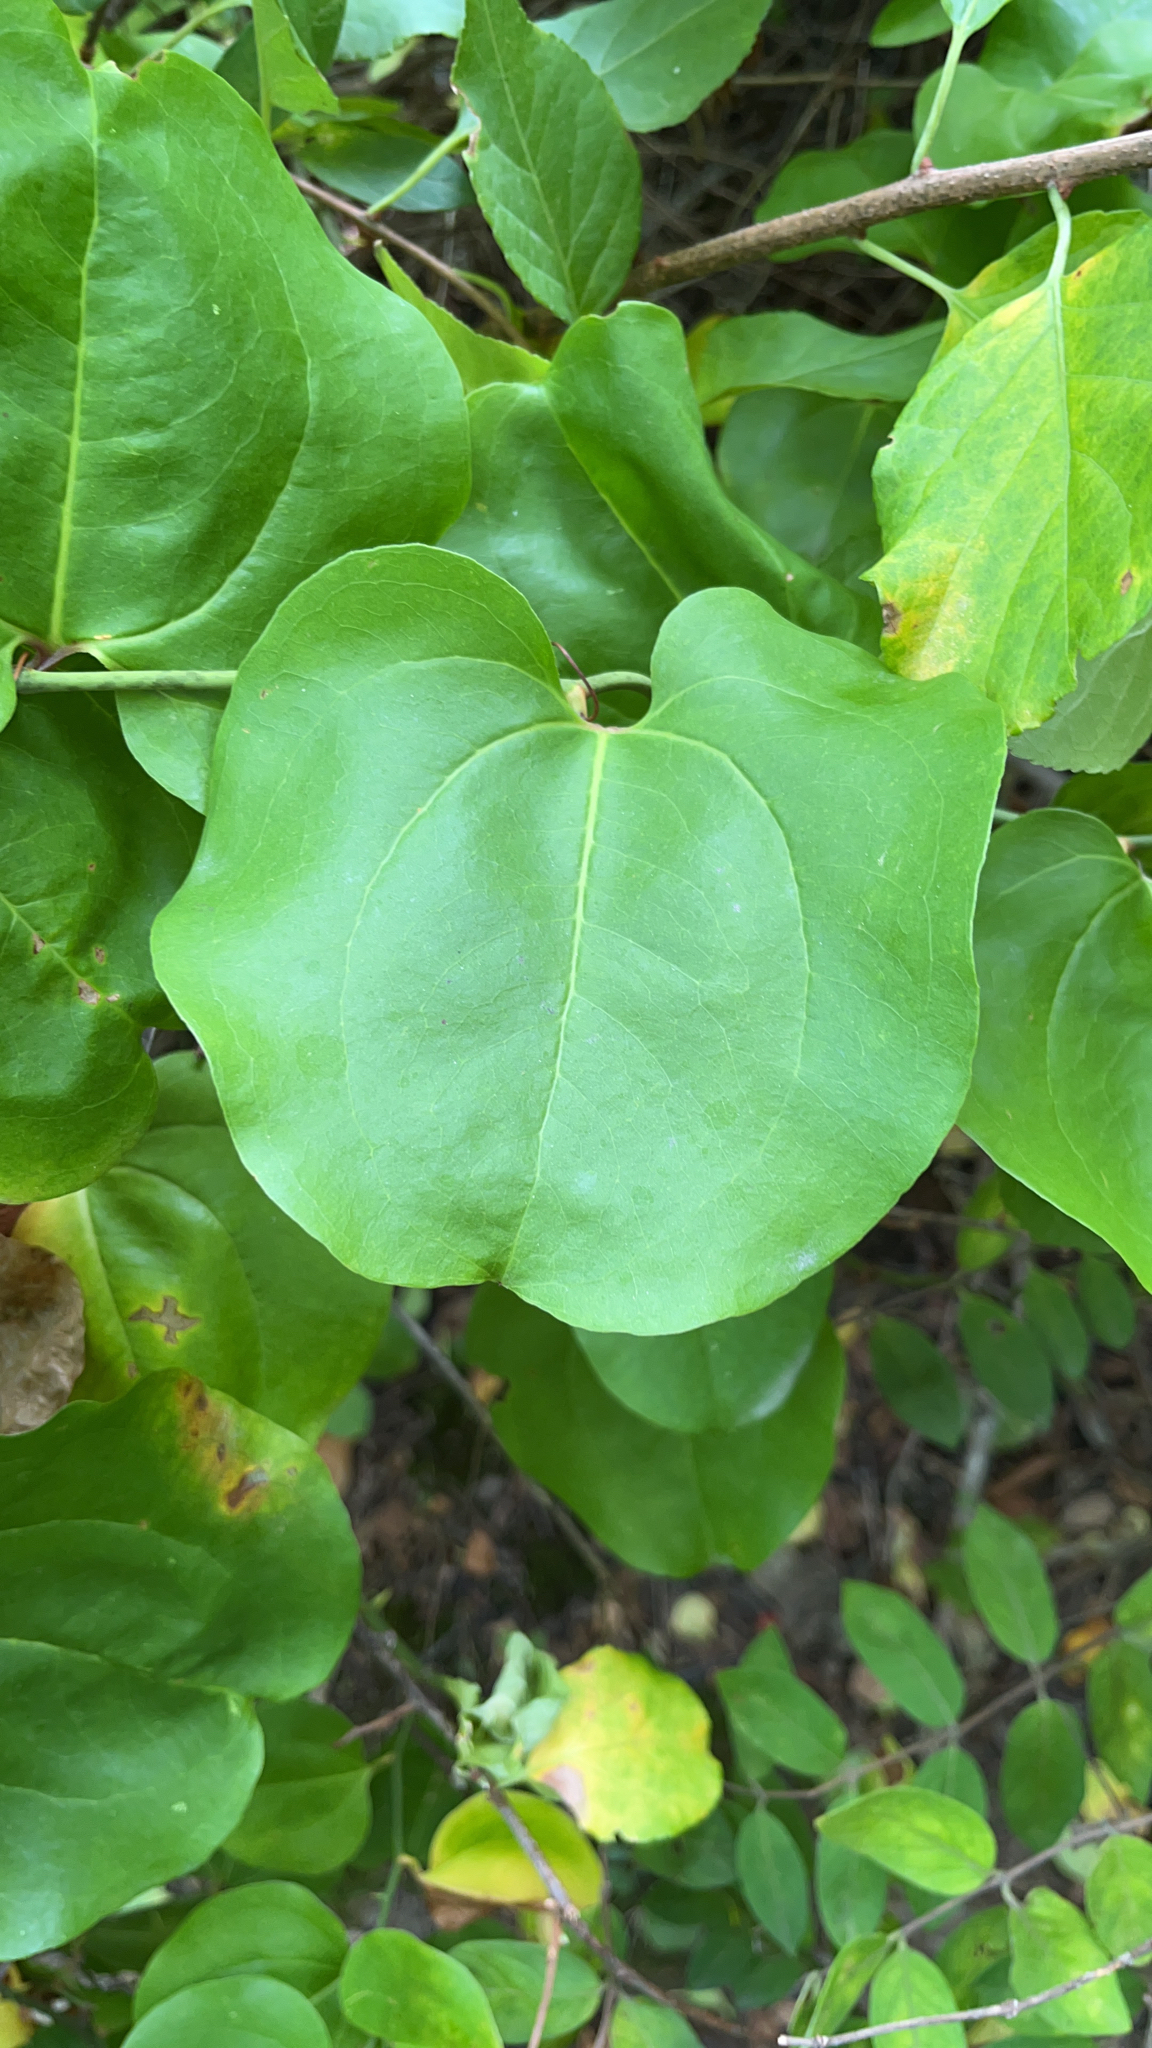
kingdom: Plantae
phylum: Tracheophyta
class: Liliopsida
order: Liliales
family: Smilacaceae
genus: Smilax
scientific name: Smilax rotundifolia
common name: Bullbriar
